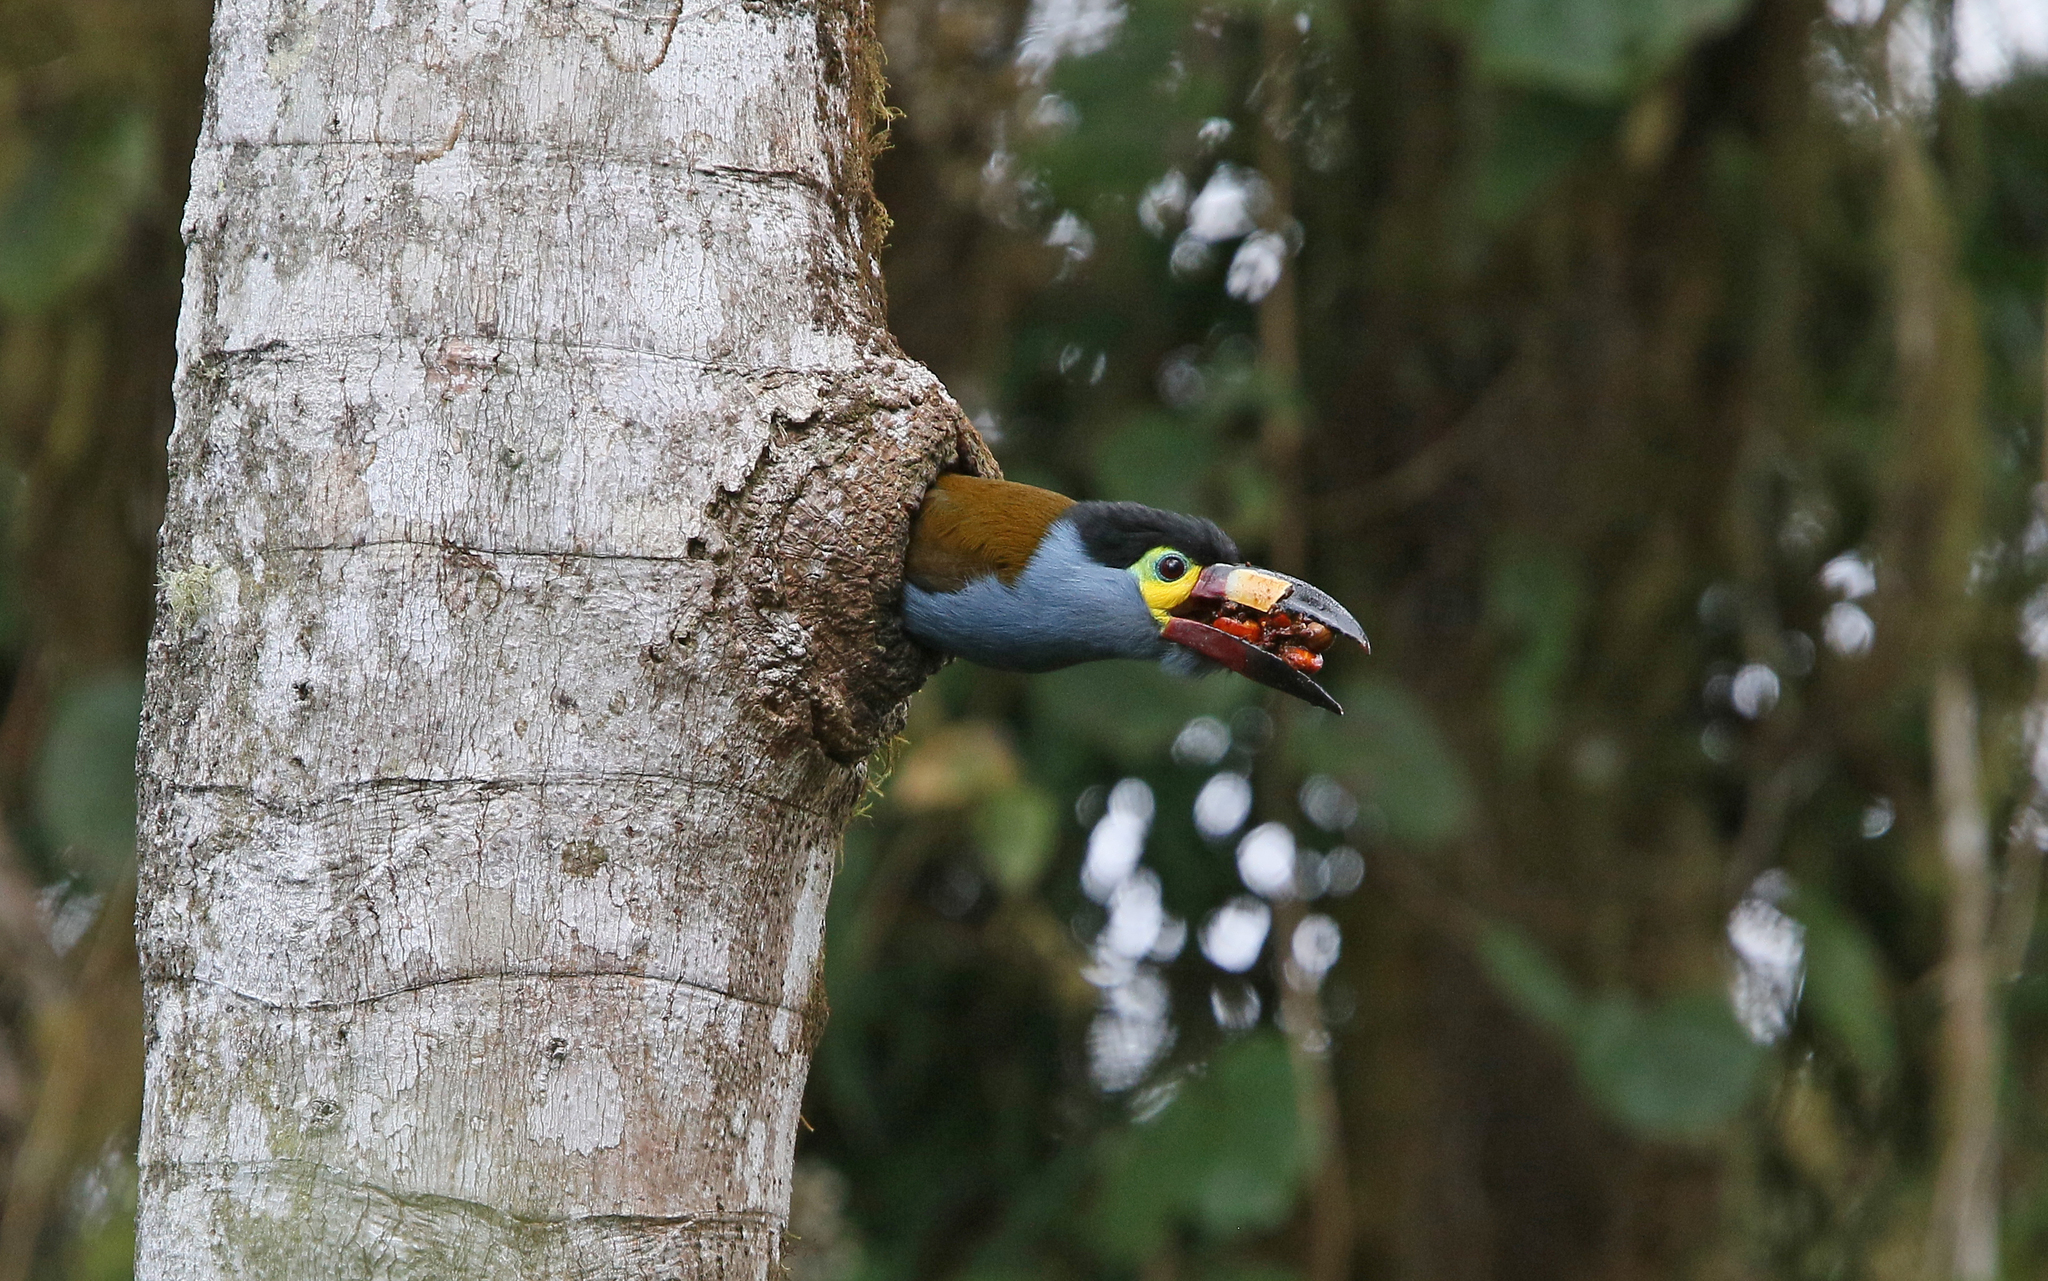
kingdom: Animalia
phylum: Chordata
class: Aves
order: Piciformes
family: Ramphastidae
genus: Andigena
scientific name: Andigena laminirostris
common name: Plate-billed mountain toucan
